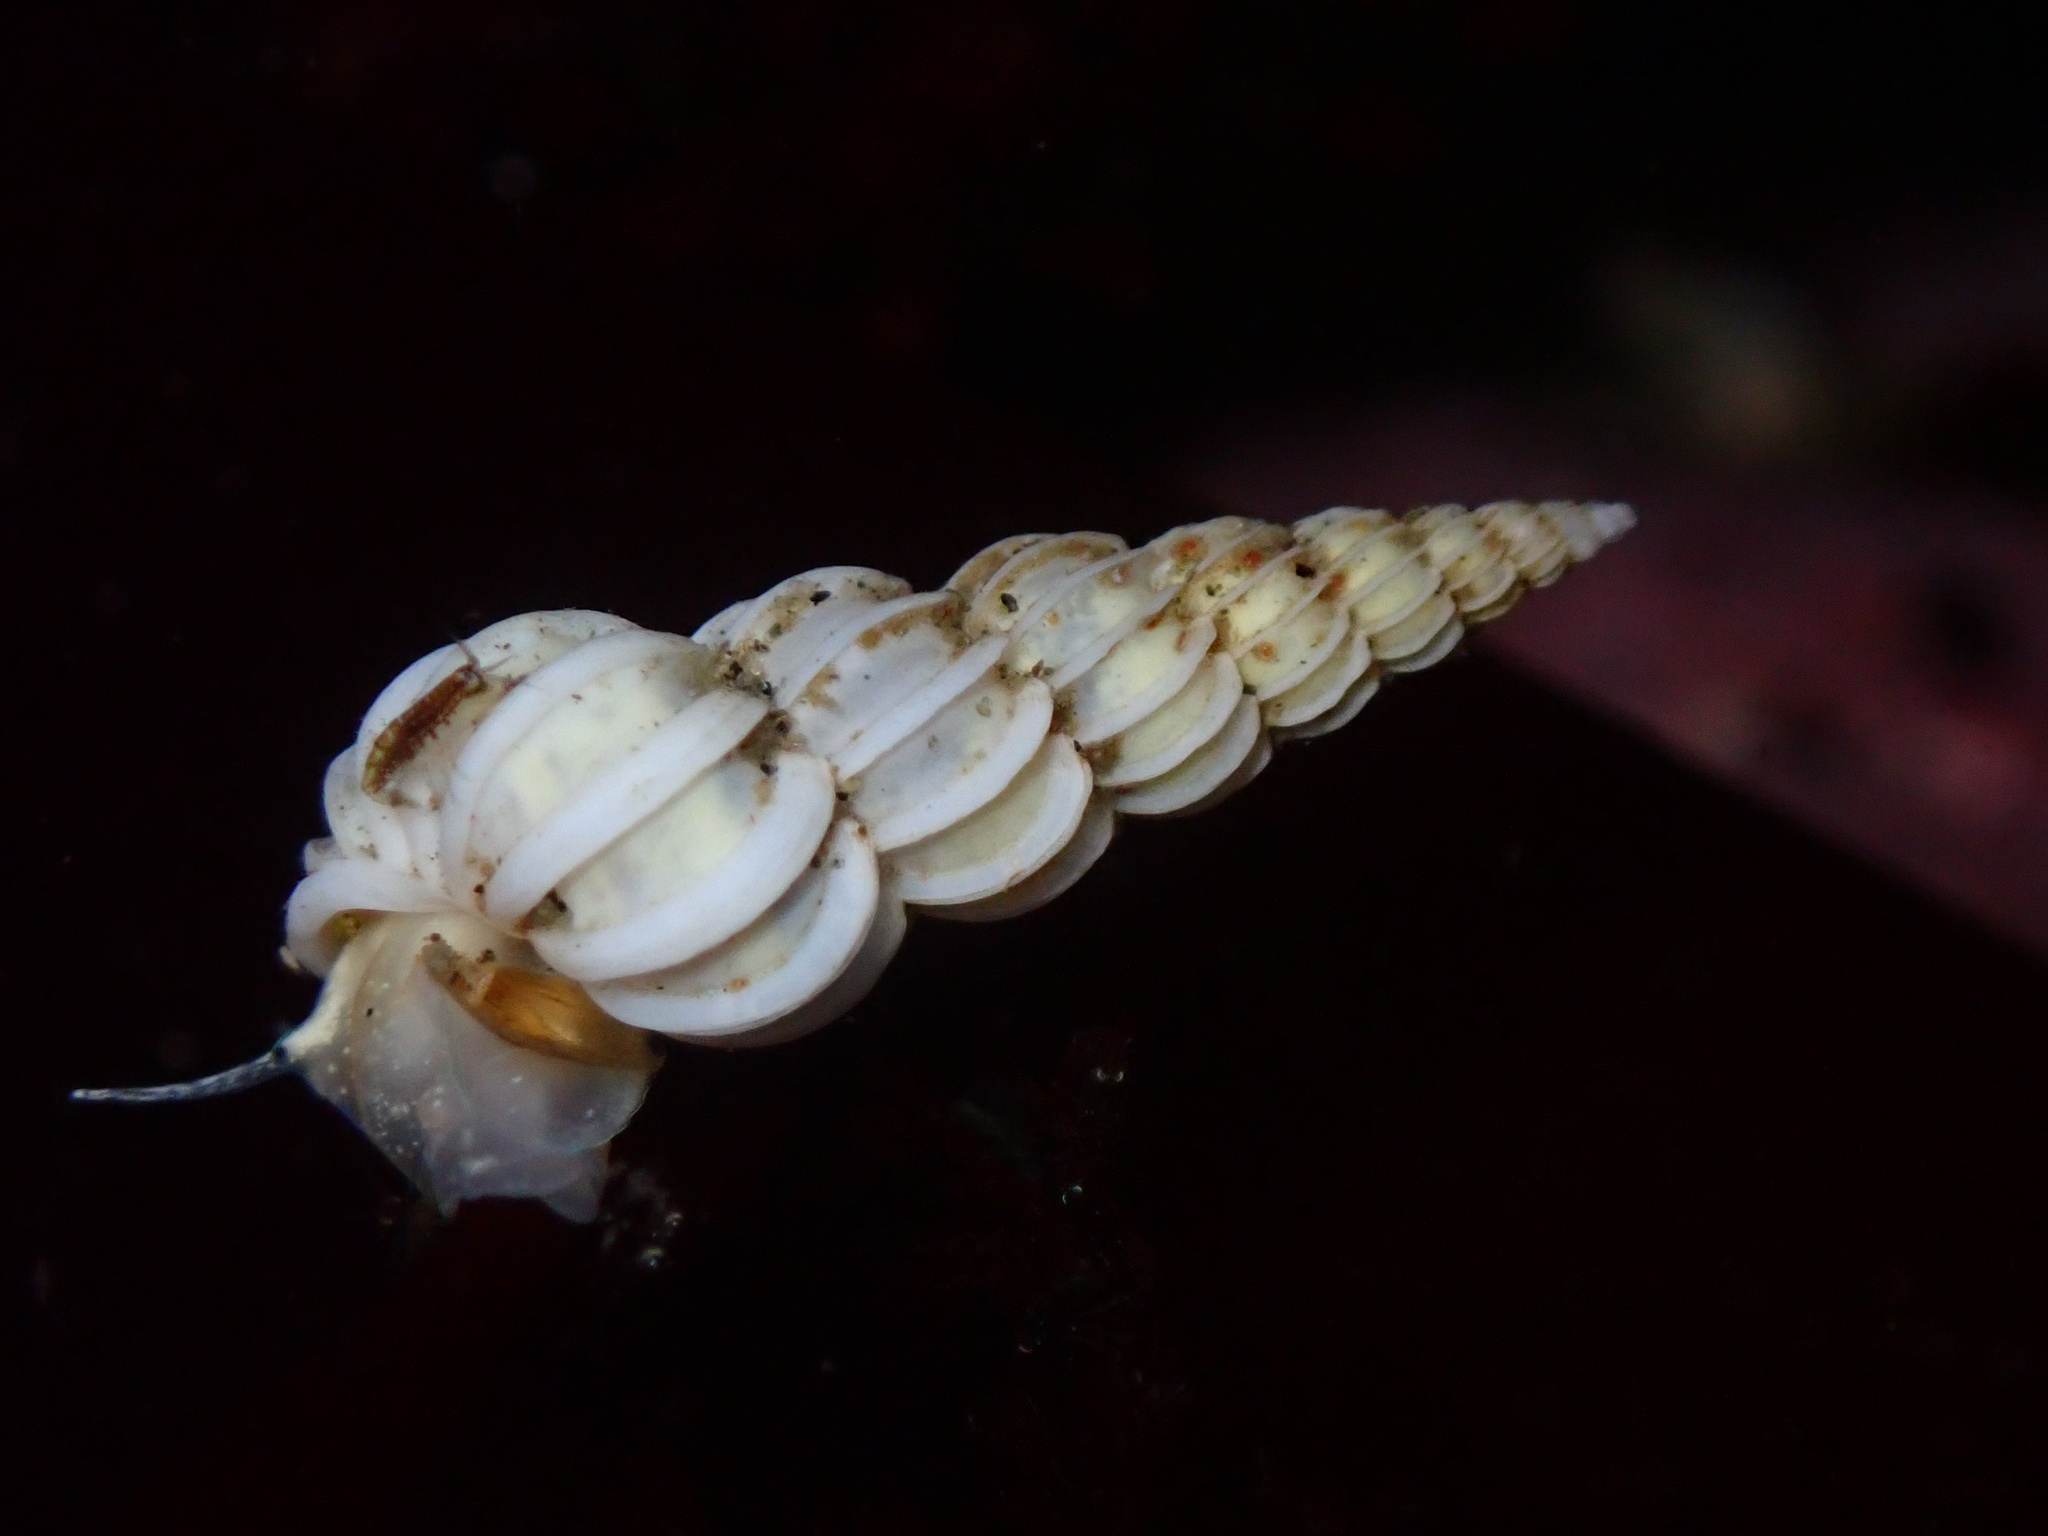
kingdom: Animalia
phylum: Mollusca
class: Gastropoda
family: Epitoniidae
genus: Epitonium
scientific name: Epitonium indianorum
